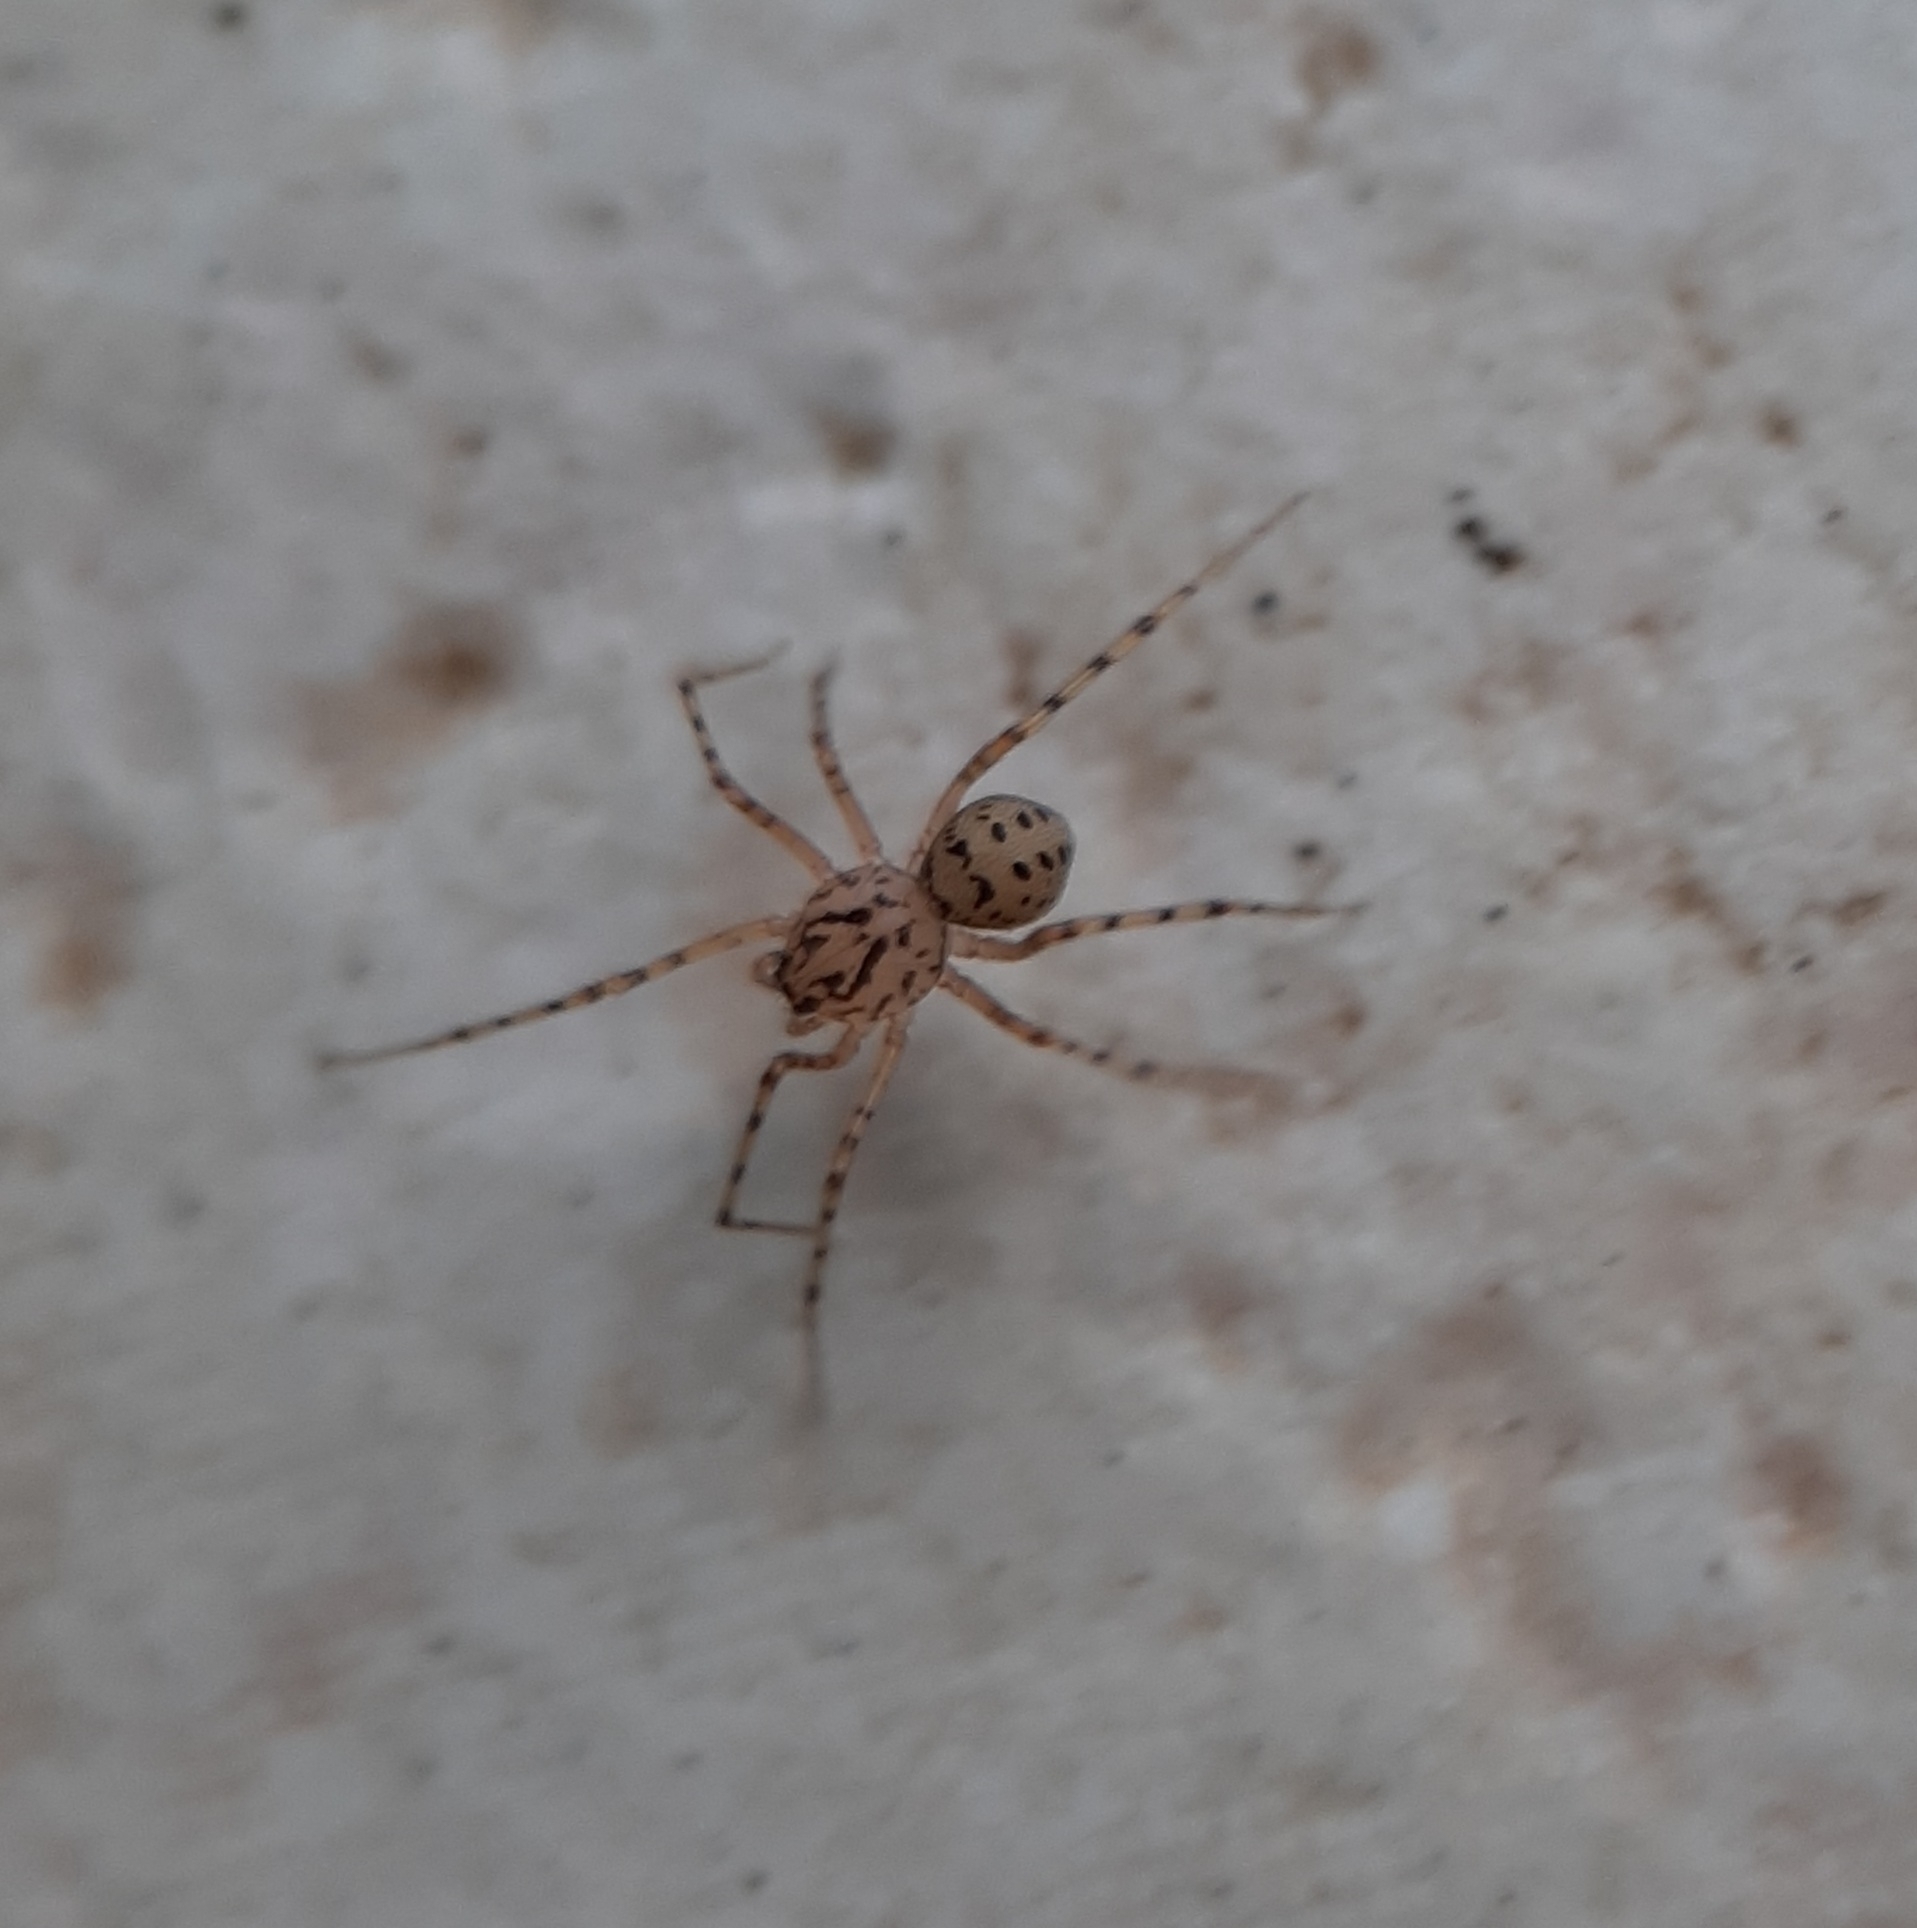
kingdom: Animalia
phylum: Arthropoda
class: Arachnida
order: Araneae
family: Scytodidae
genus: Scytodes
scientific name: Scytodes thoracica
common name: Spitting spider
